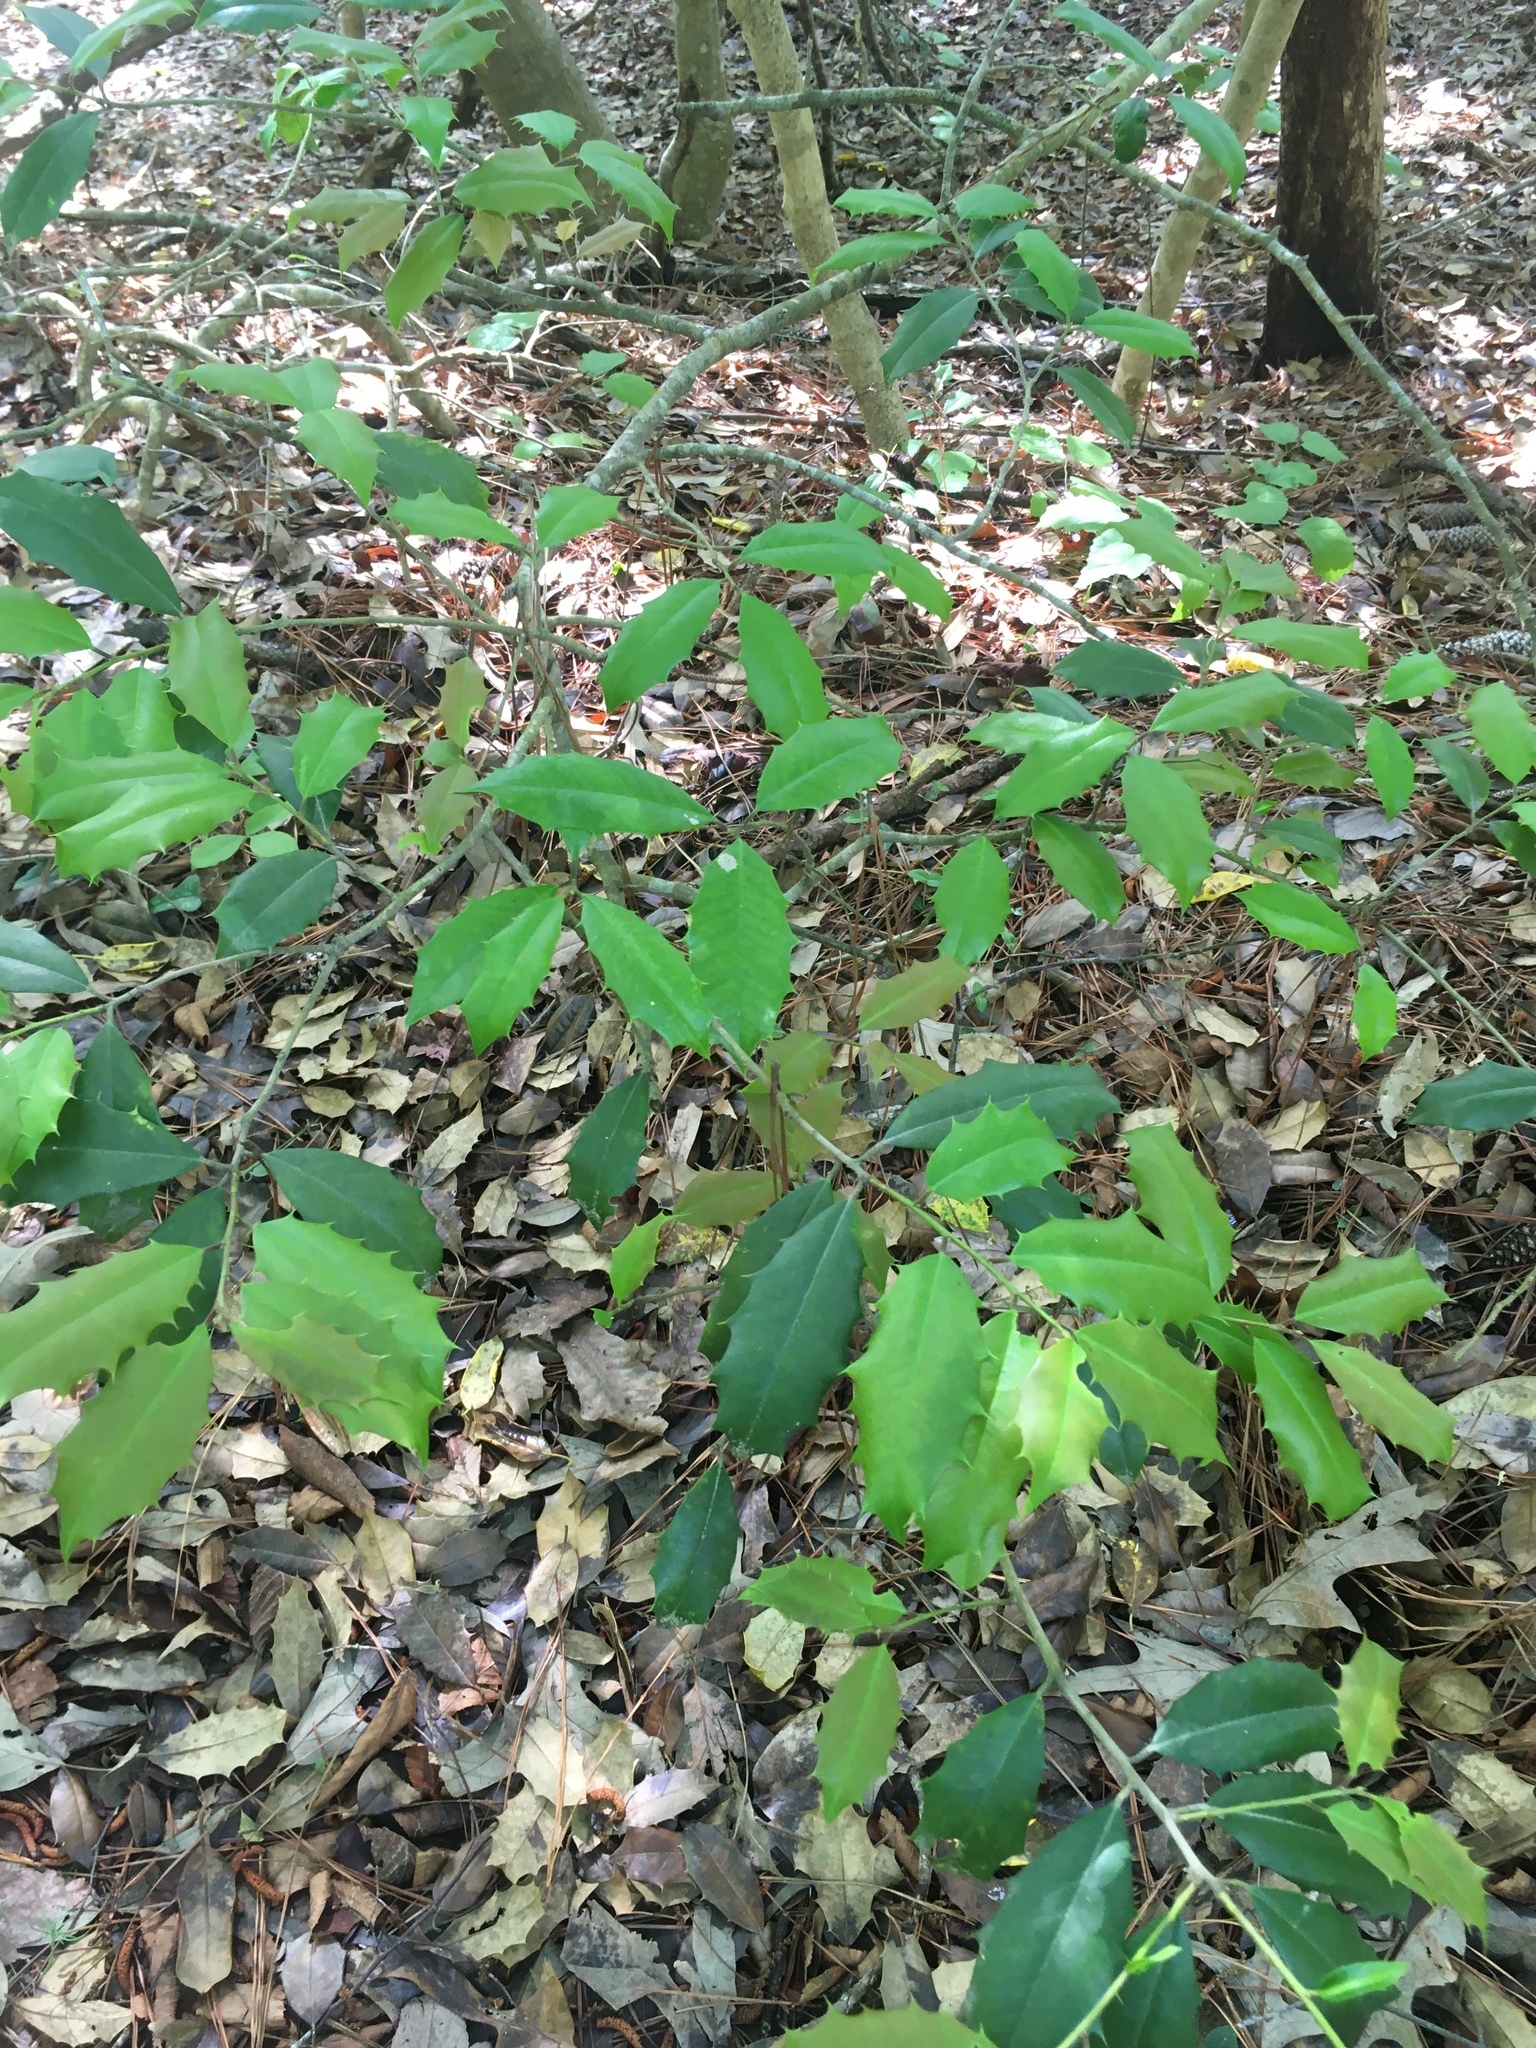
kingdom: Plantae
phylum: Tracheophyta
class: Magnoliopsida
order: Aquifoliales
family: Aquifoliaceae
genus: Ilex
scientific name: Ilex opaca
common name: American holly
